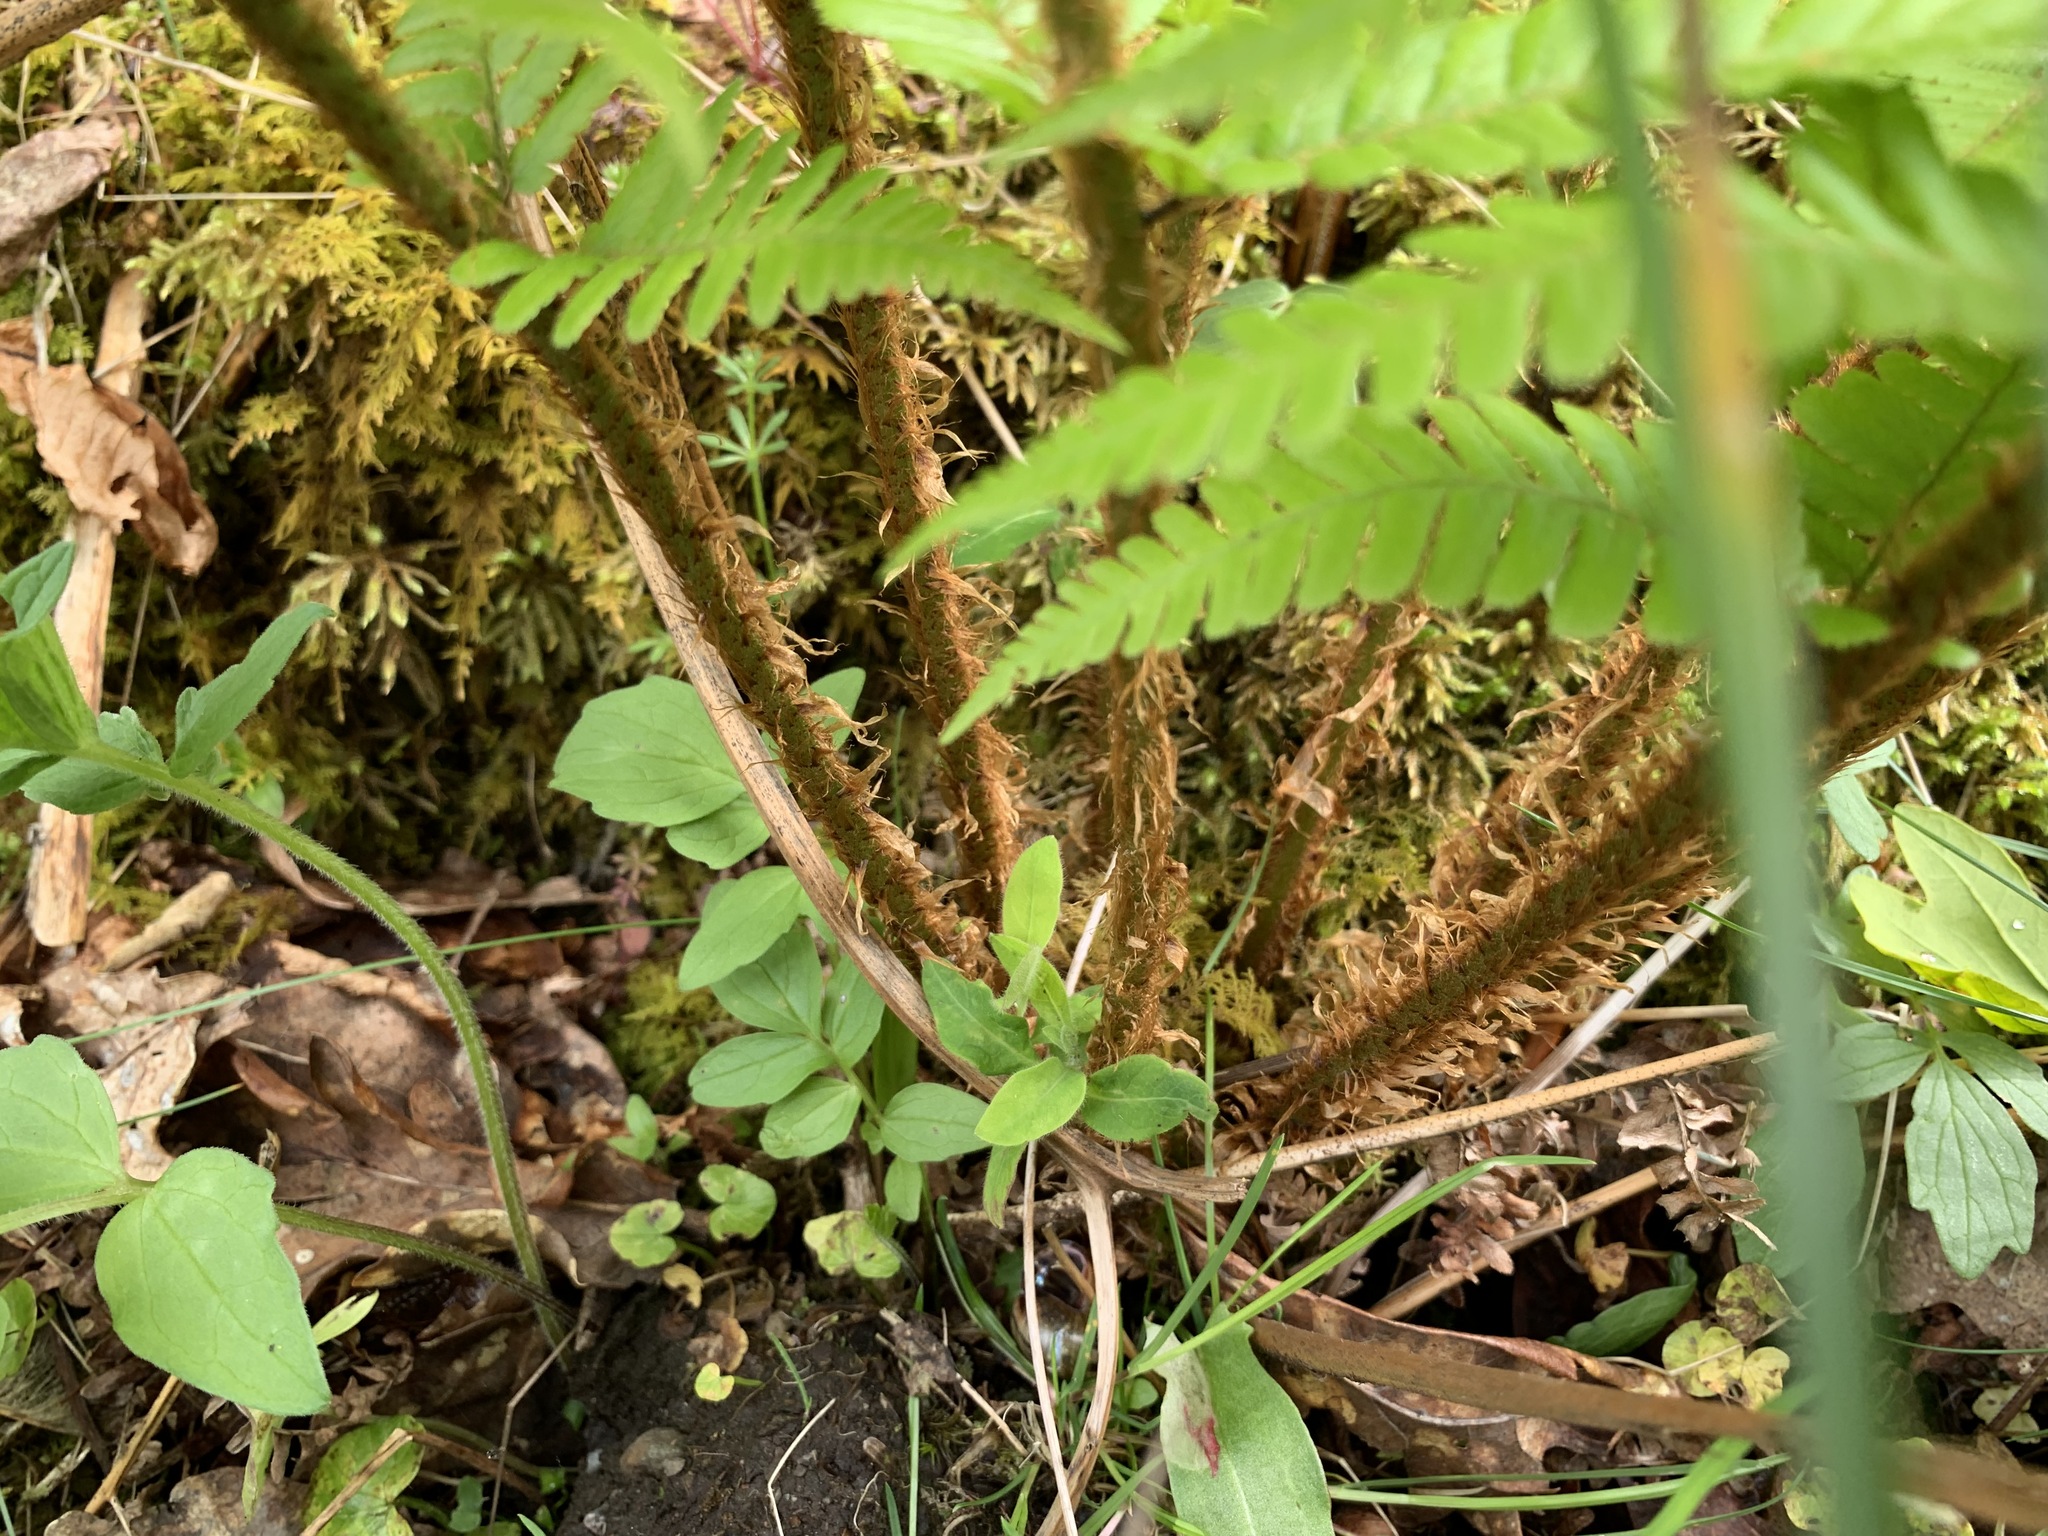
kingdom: Plantae
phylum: Tracheophyta
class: Polypodiopsida
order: Polypodiales
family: Dryopteridaceae
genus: Dryopteris
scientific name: Dryopteris borreri
